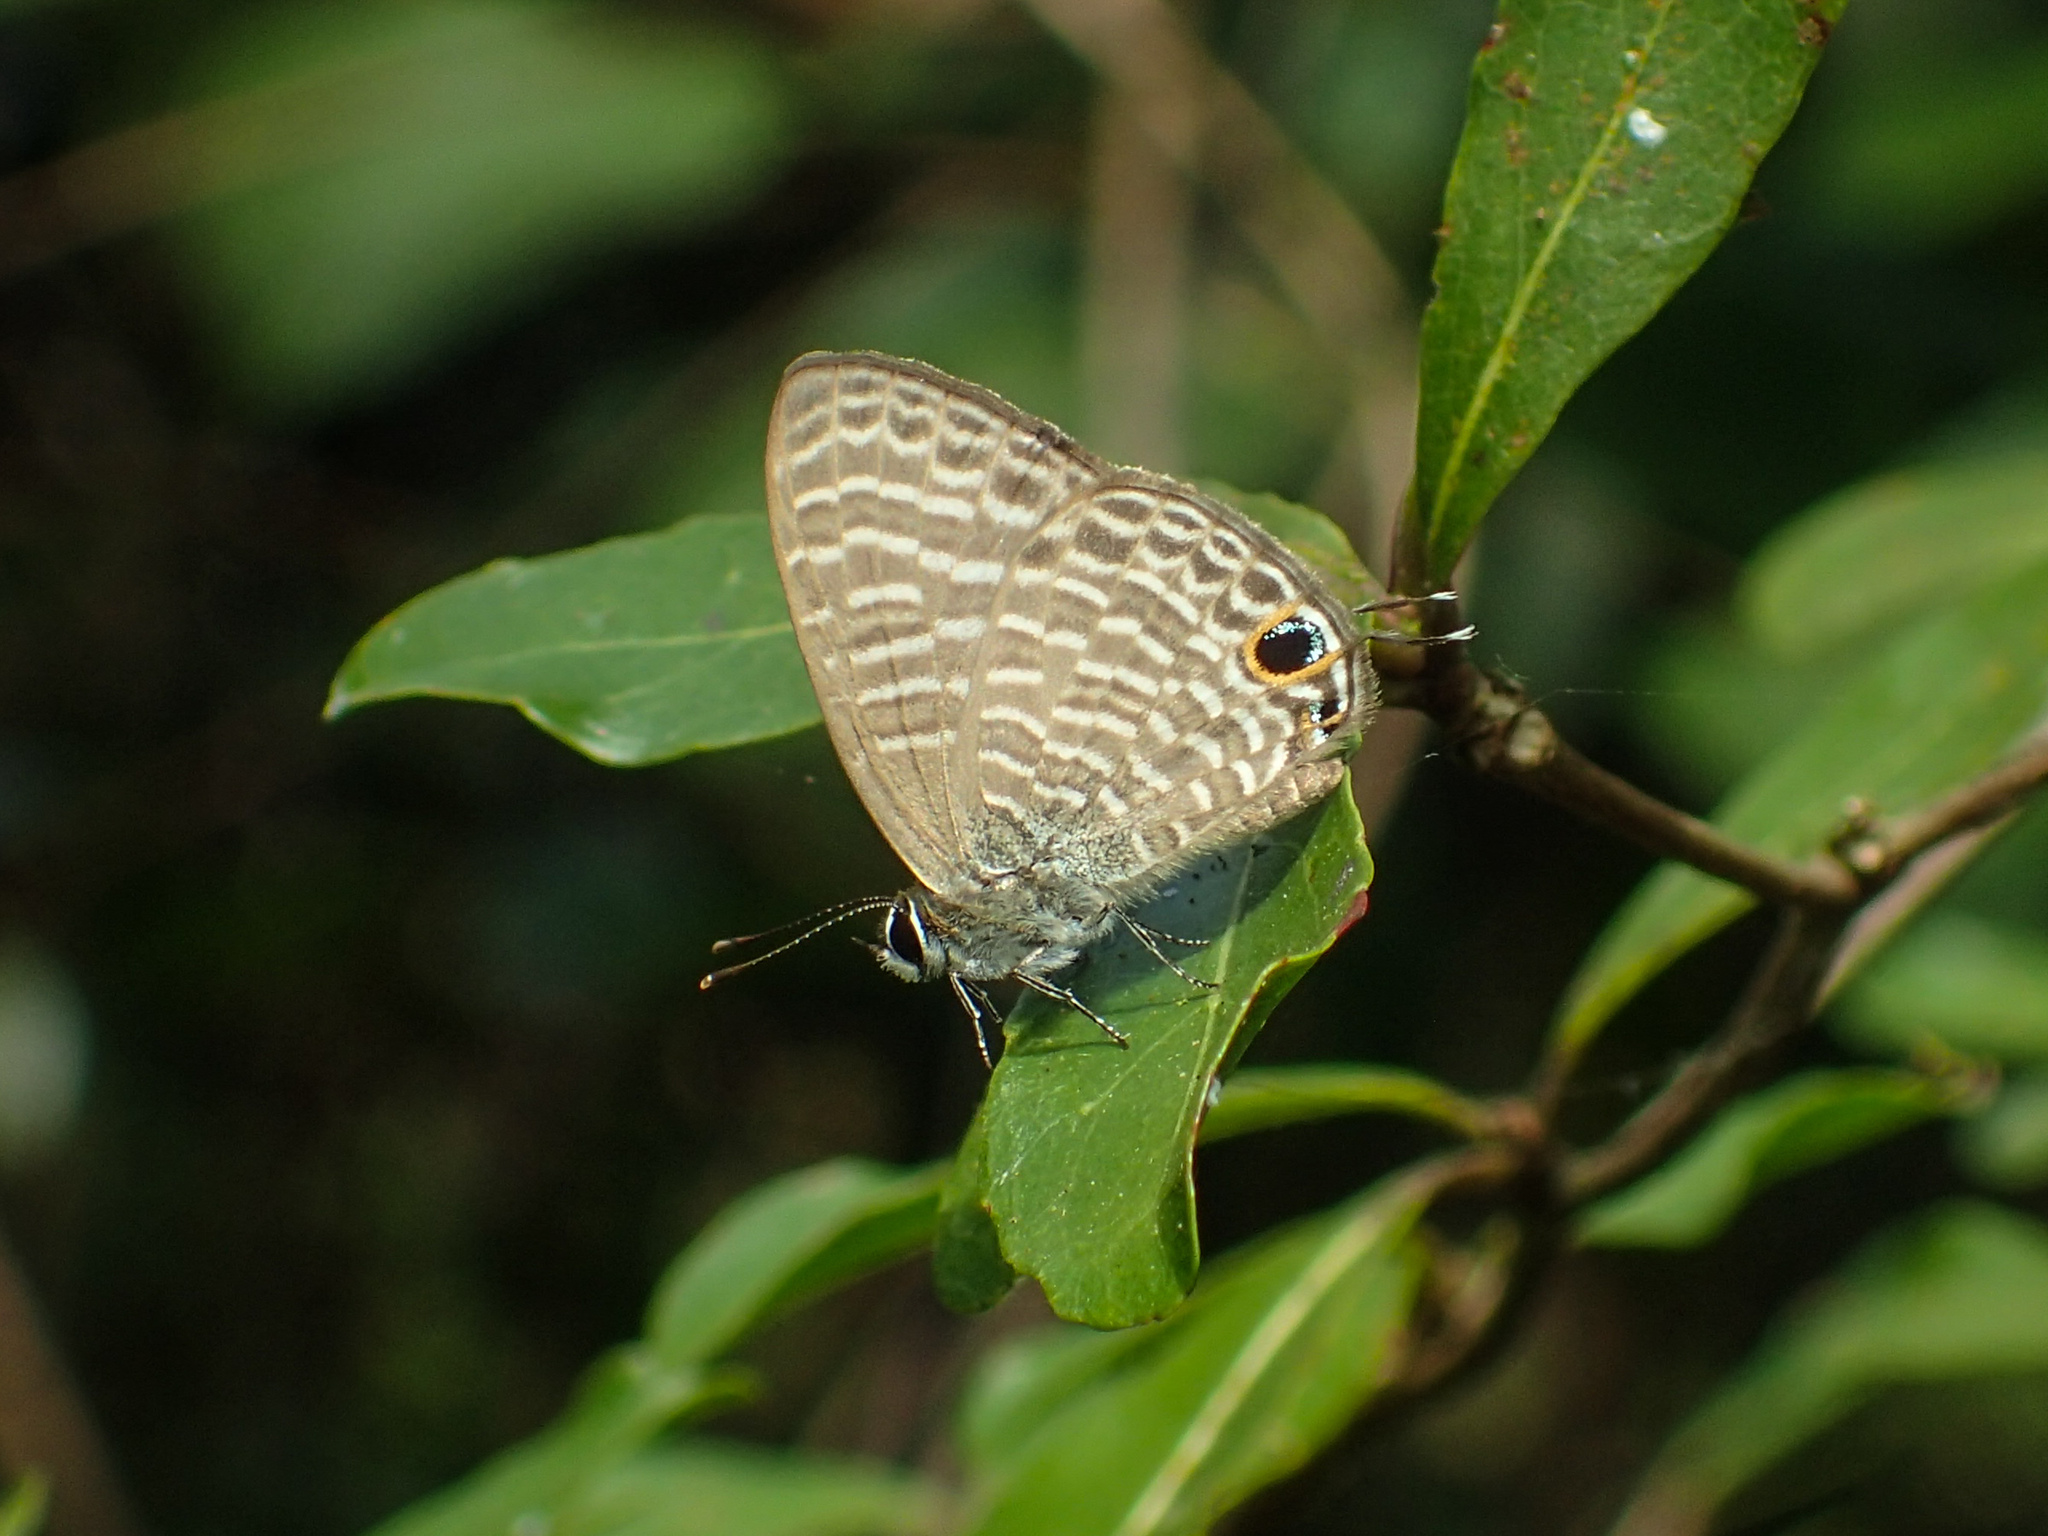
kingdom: Animalia
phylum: Arthropoda
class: Insecta
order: Lepidoptera
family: Lycaenidae
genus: Nacaduba
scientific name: Nacaduba kurava
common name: Transparent 6-line blue
